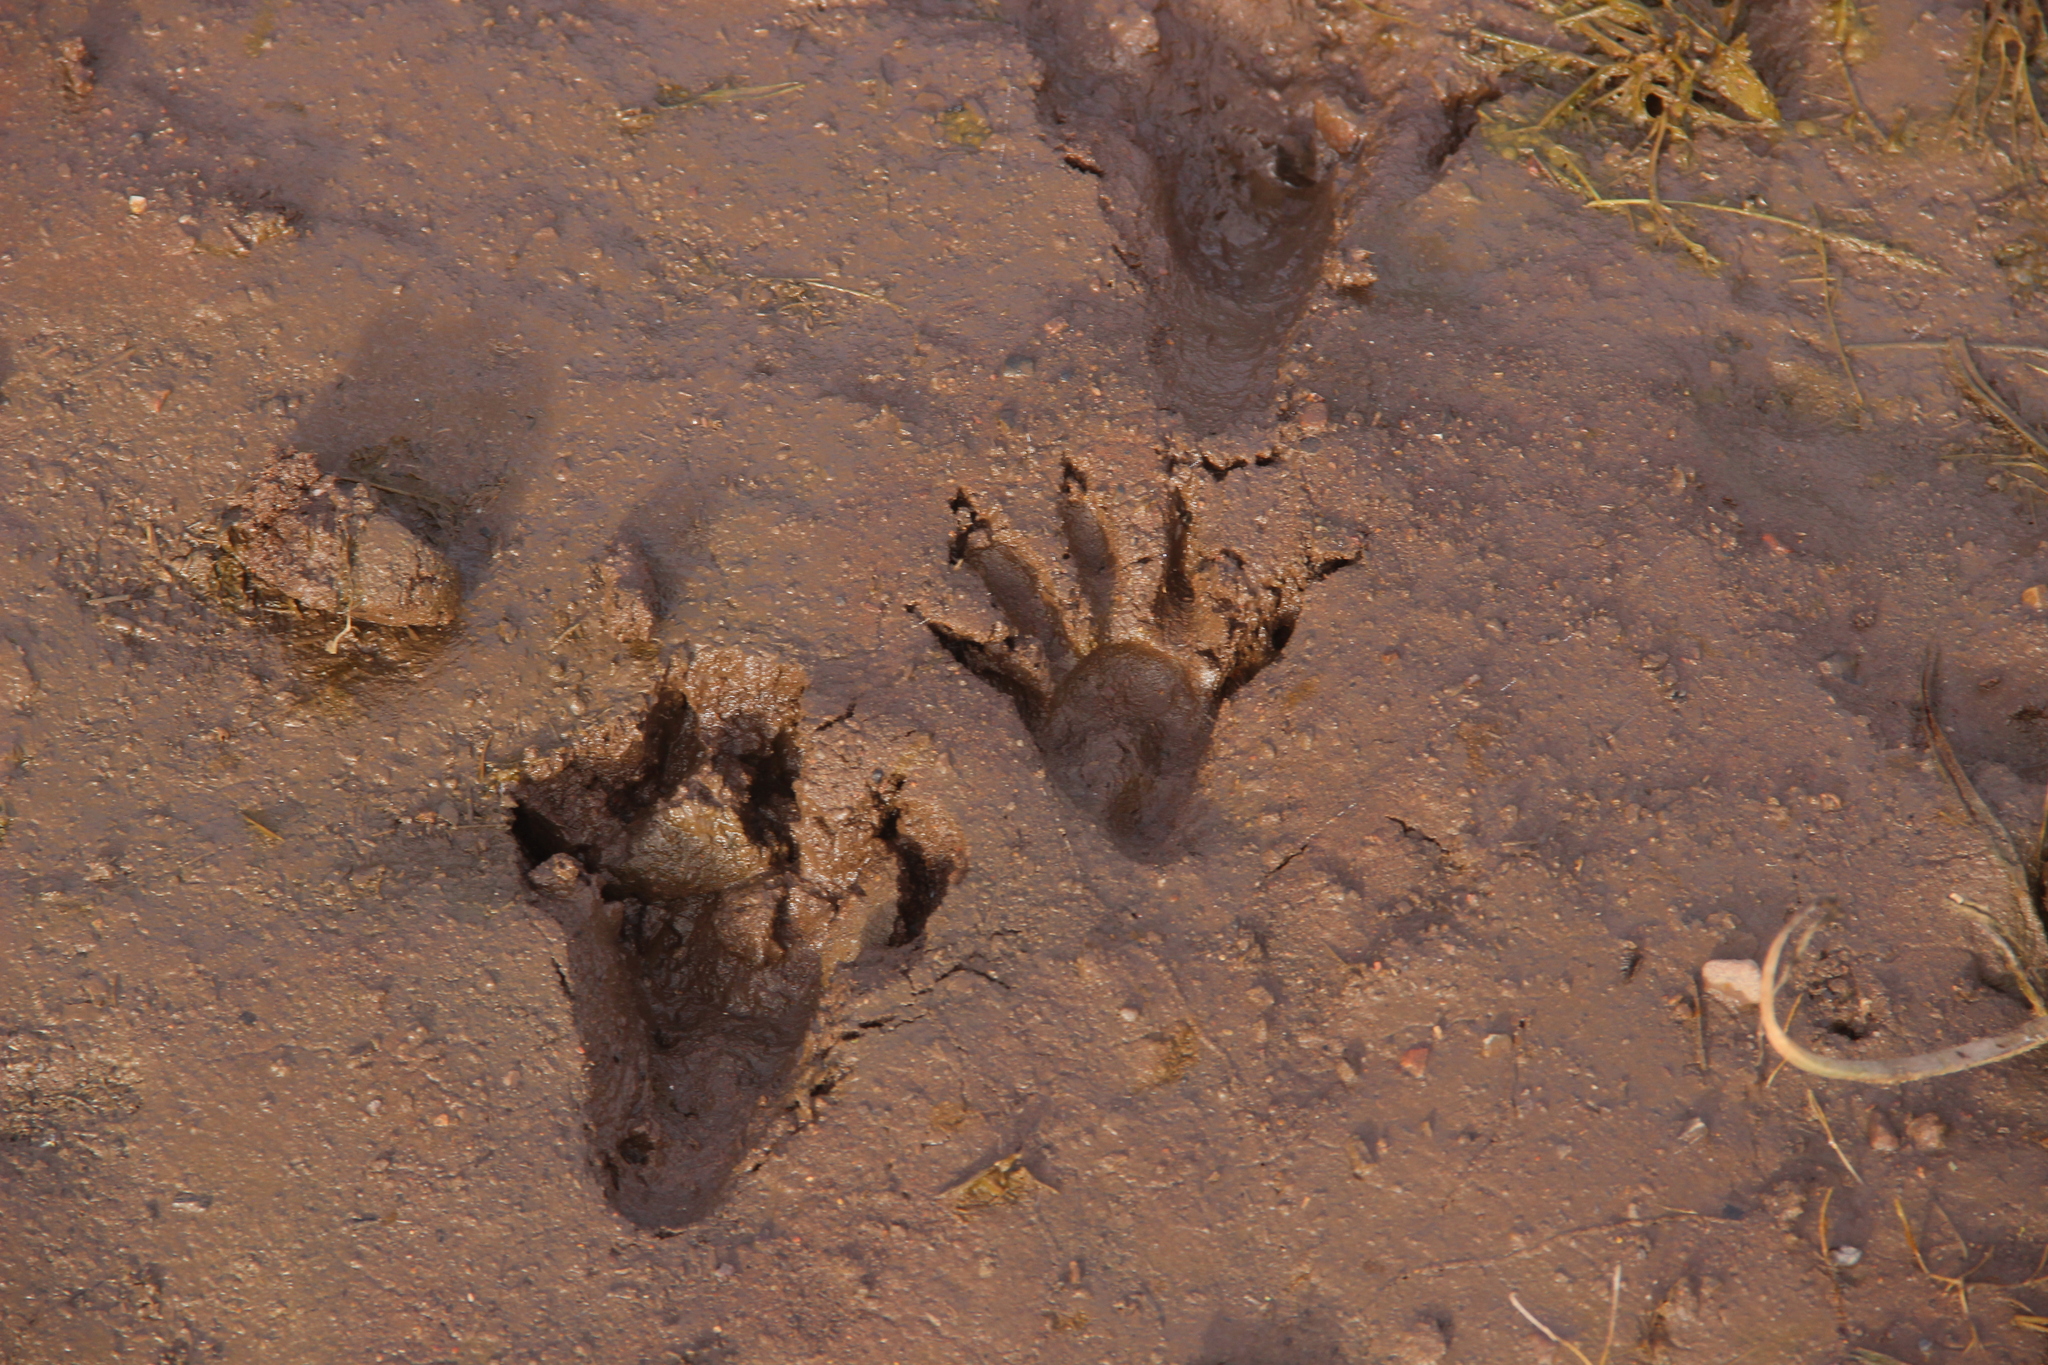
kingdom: Animalia
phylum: Chordata
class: Mammalia
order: Carnivora
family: Procyonidae
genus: Procyon
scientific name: Procyon lotor
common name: Raccoon
